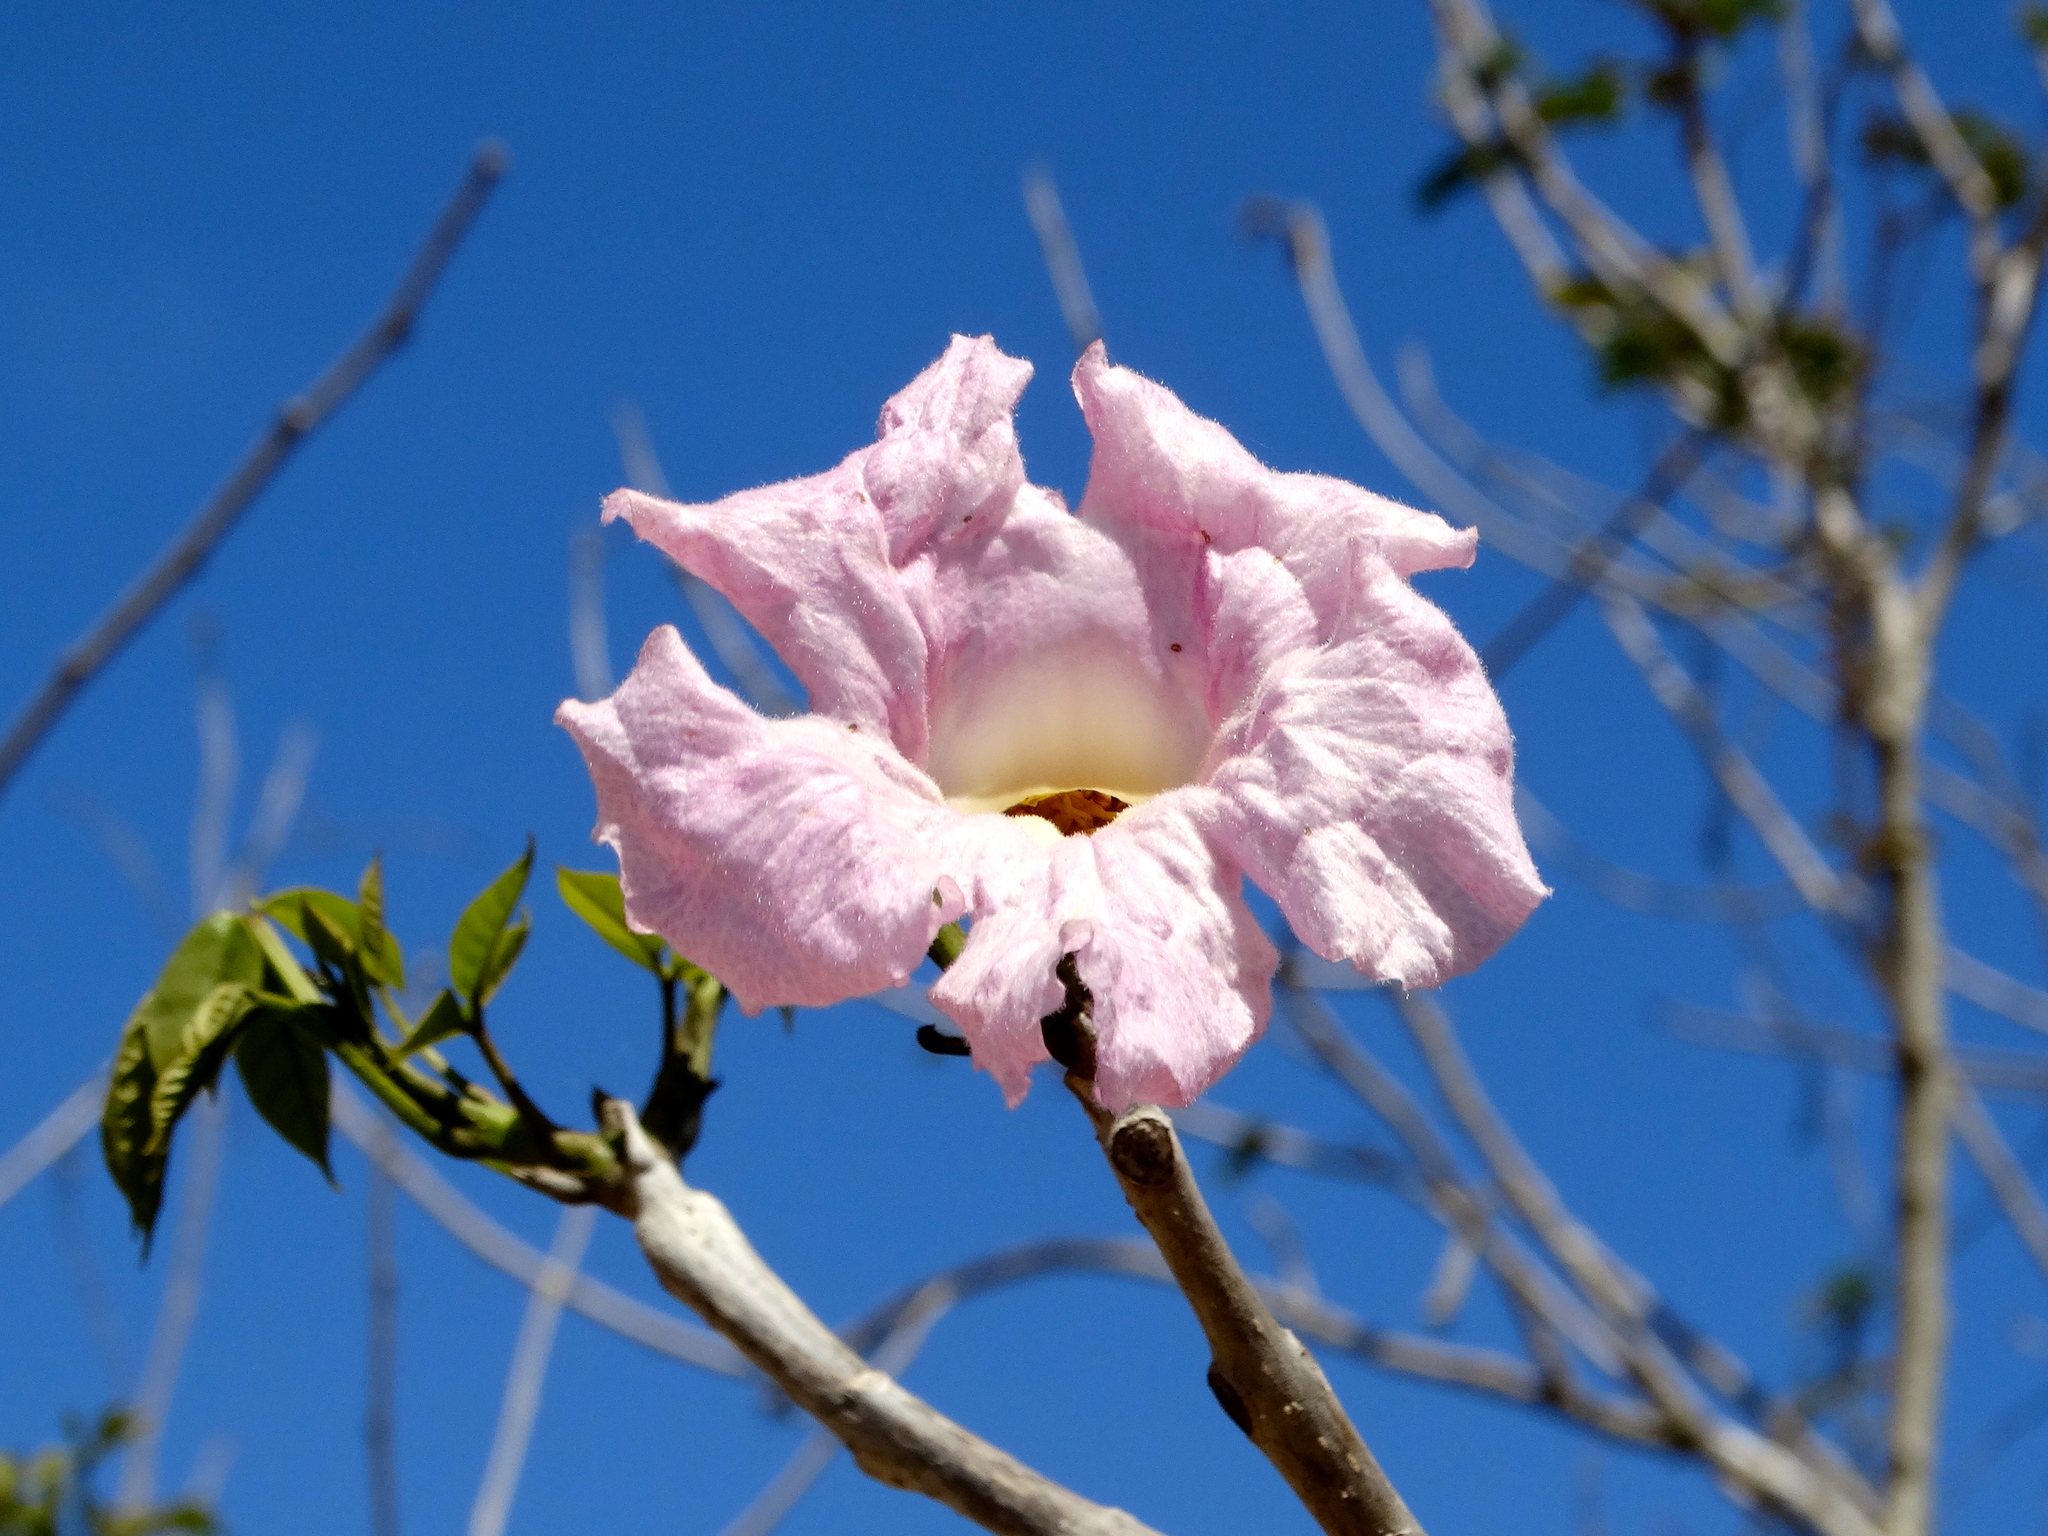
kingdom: Plantae
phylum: Tracheophyta
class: Magnoliopsida
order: Lamiales
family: Bignoniaceae
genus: Handroanthus
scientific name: Handroanthus impetiginosum
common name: Pink trumpet tree
